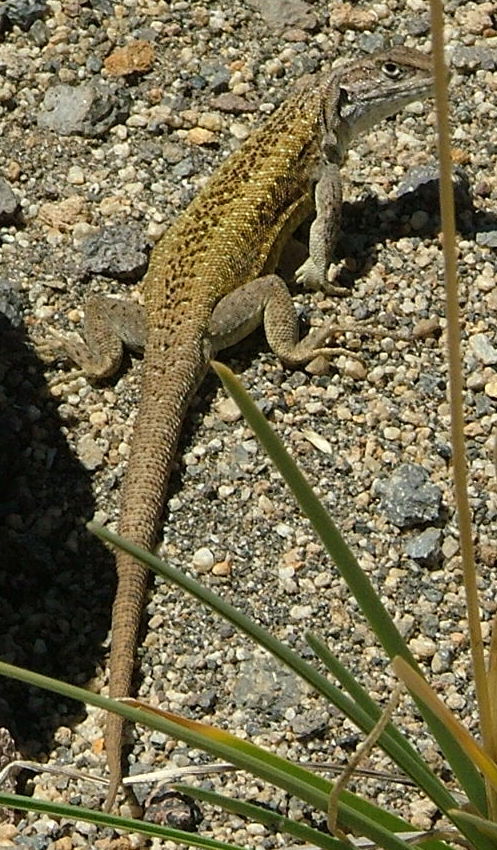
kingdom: Animalia
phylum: Chordata
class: Squamata
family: Liolaemidae
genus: Liolaemus
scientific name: Liolaemus smaug
